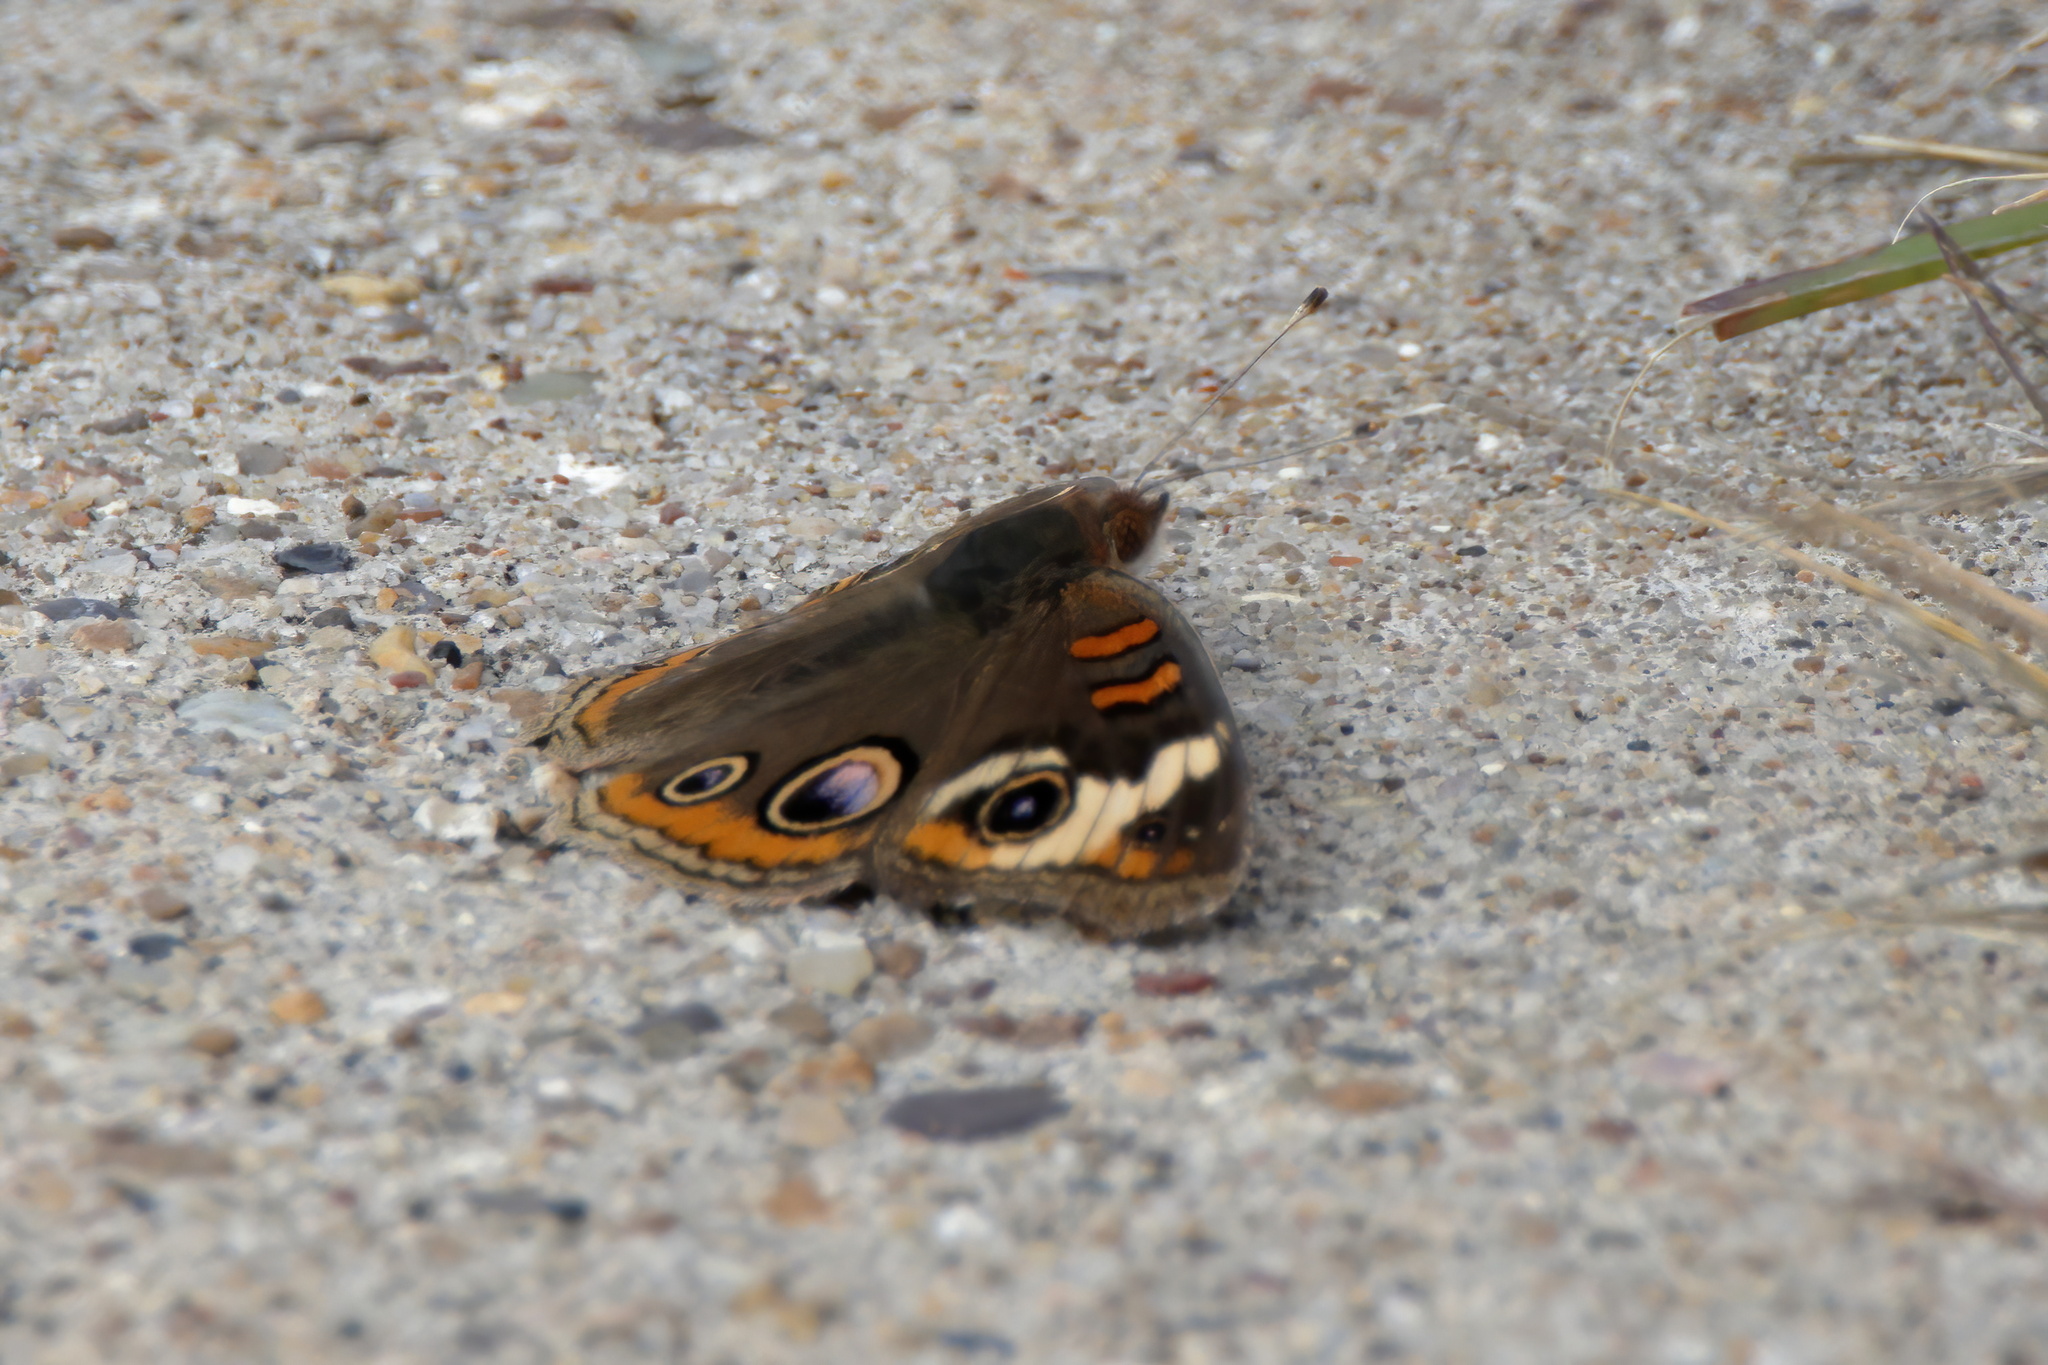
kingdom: Animalia
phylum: Arthropoda
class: Insecta
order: Lepidoptera
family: Nymphalidae
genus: Junonia
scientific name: Junonia coenia
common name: Common buckeye
